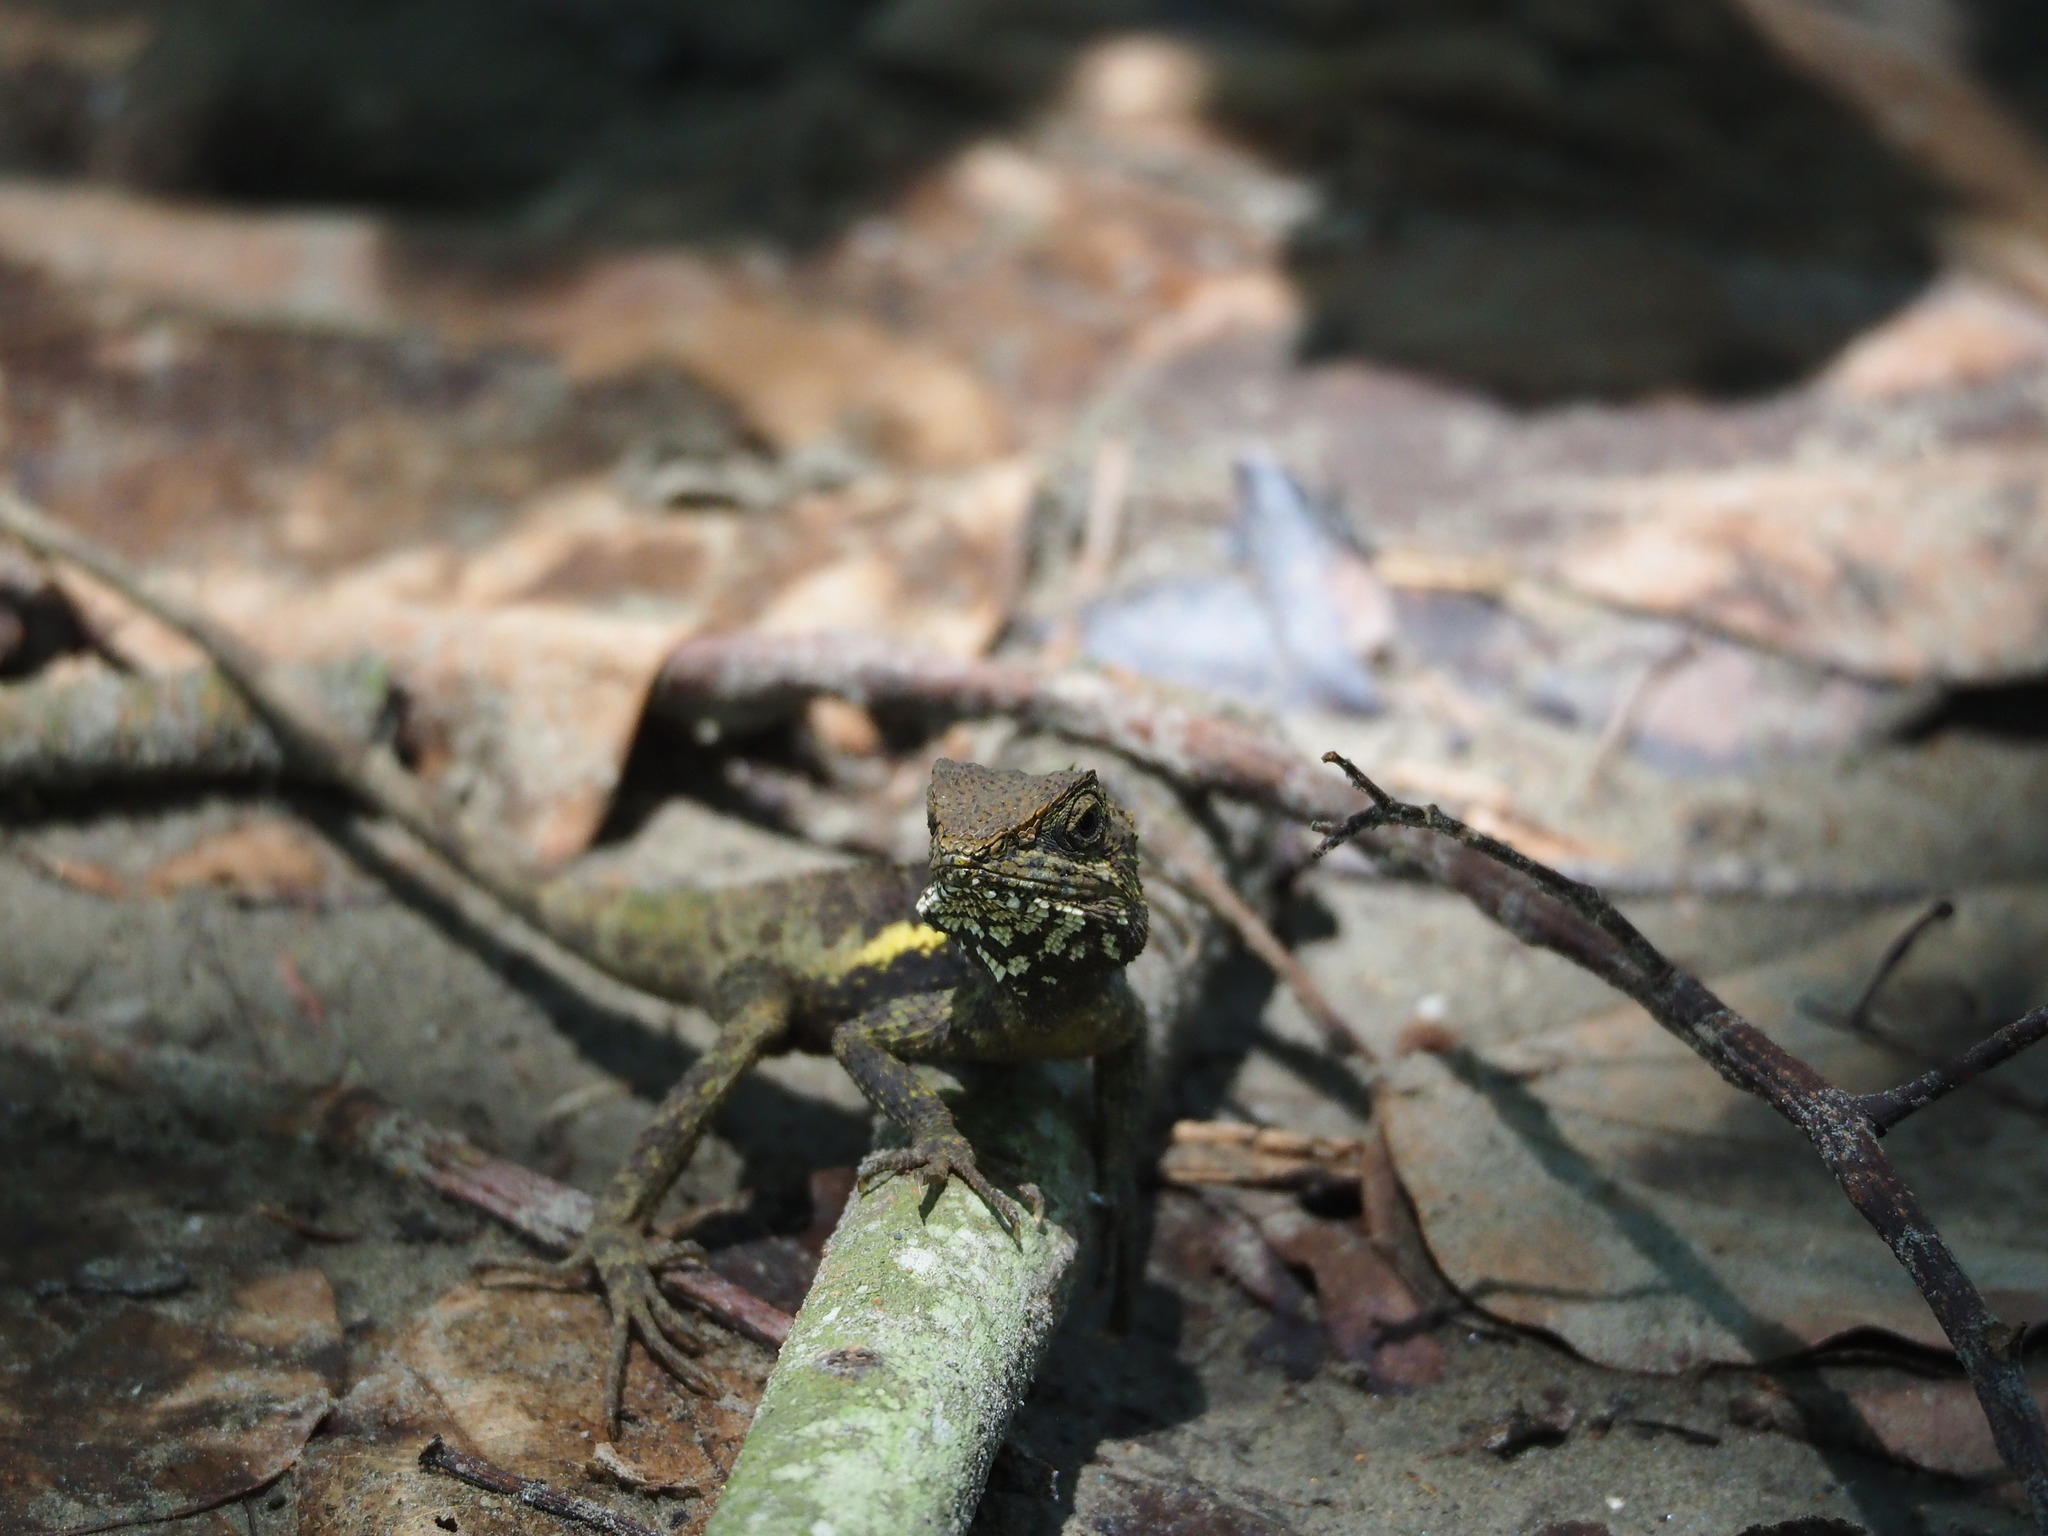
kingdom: Animalia
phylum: Chordata
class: Squamata
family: Agamidae
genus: Diploderma
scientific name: Diploderma swinhonis
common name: Taiwan japalure
